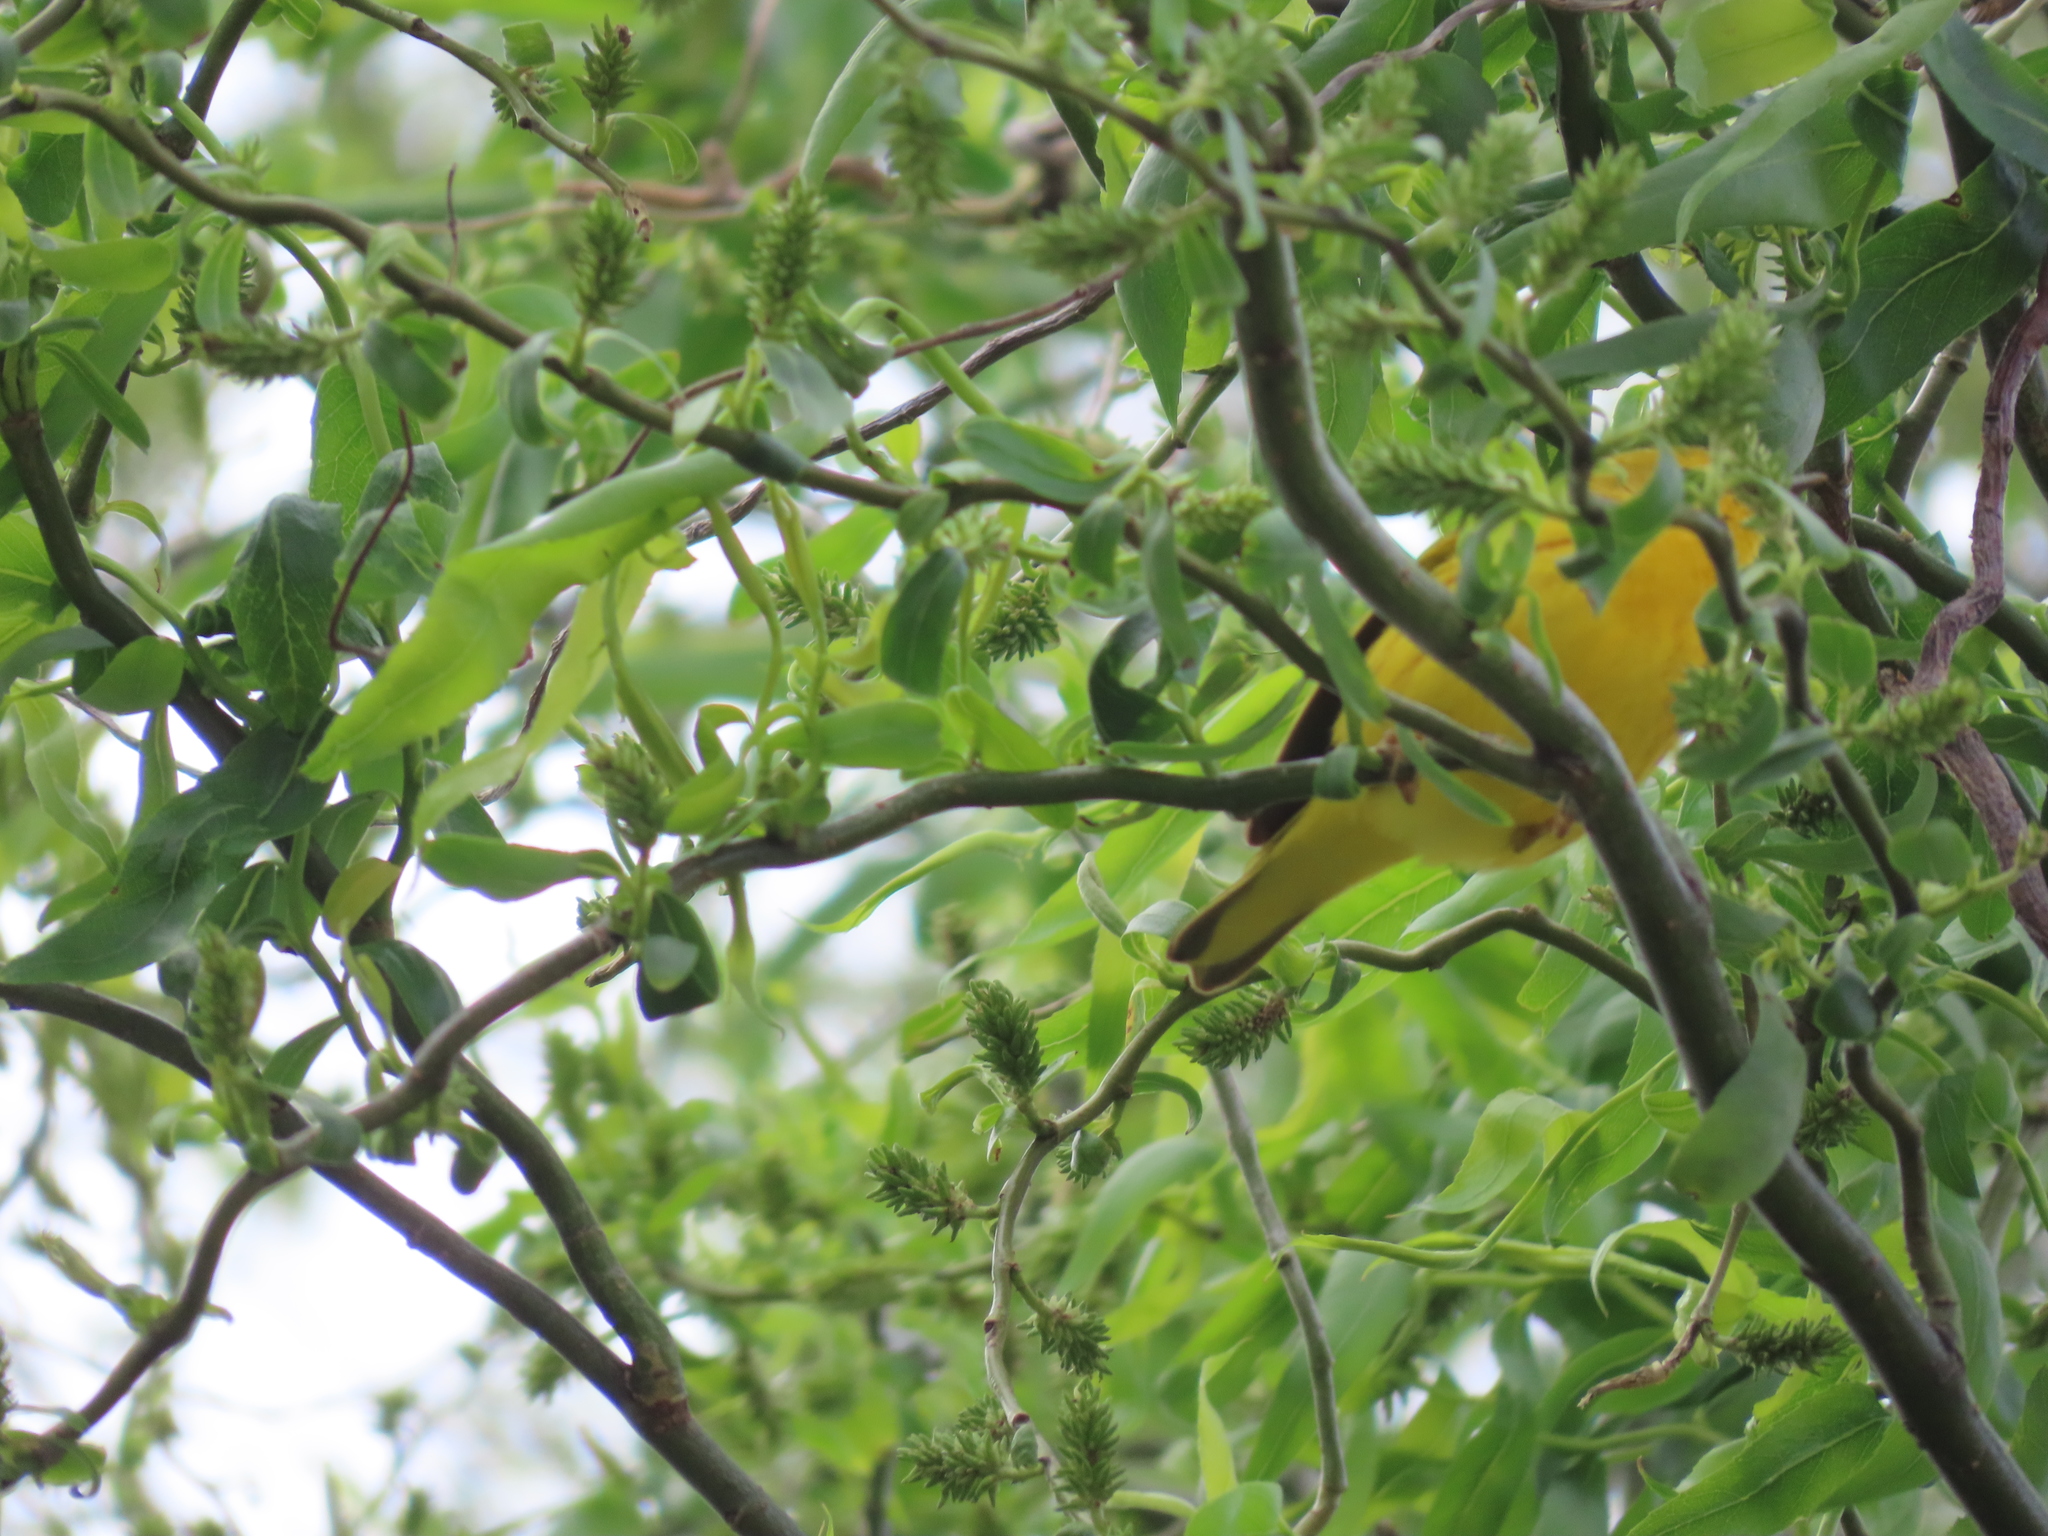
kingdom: Animalia
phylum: Chordata
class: Aves
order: Passeriformes
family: Parulidae
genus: Setophaga
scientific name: Setophaga petechia
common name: Yellow warbler
